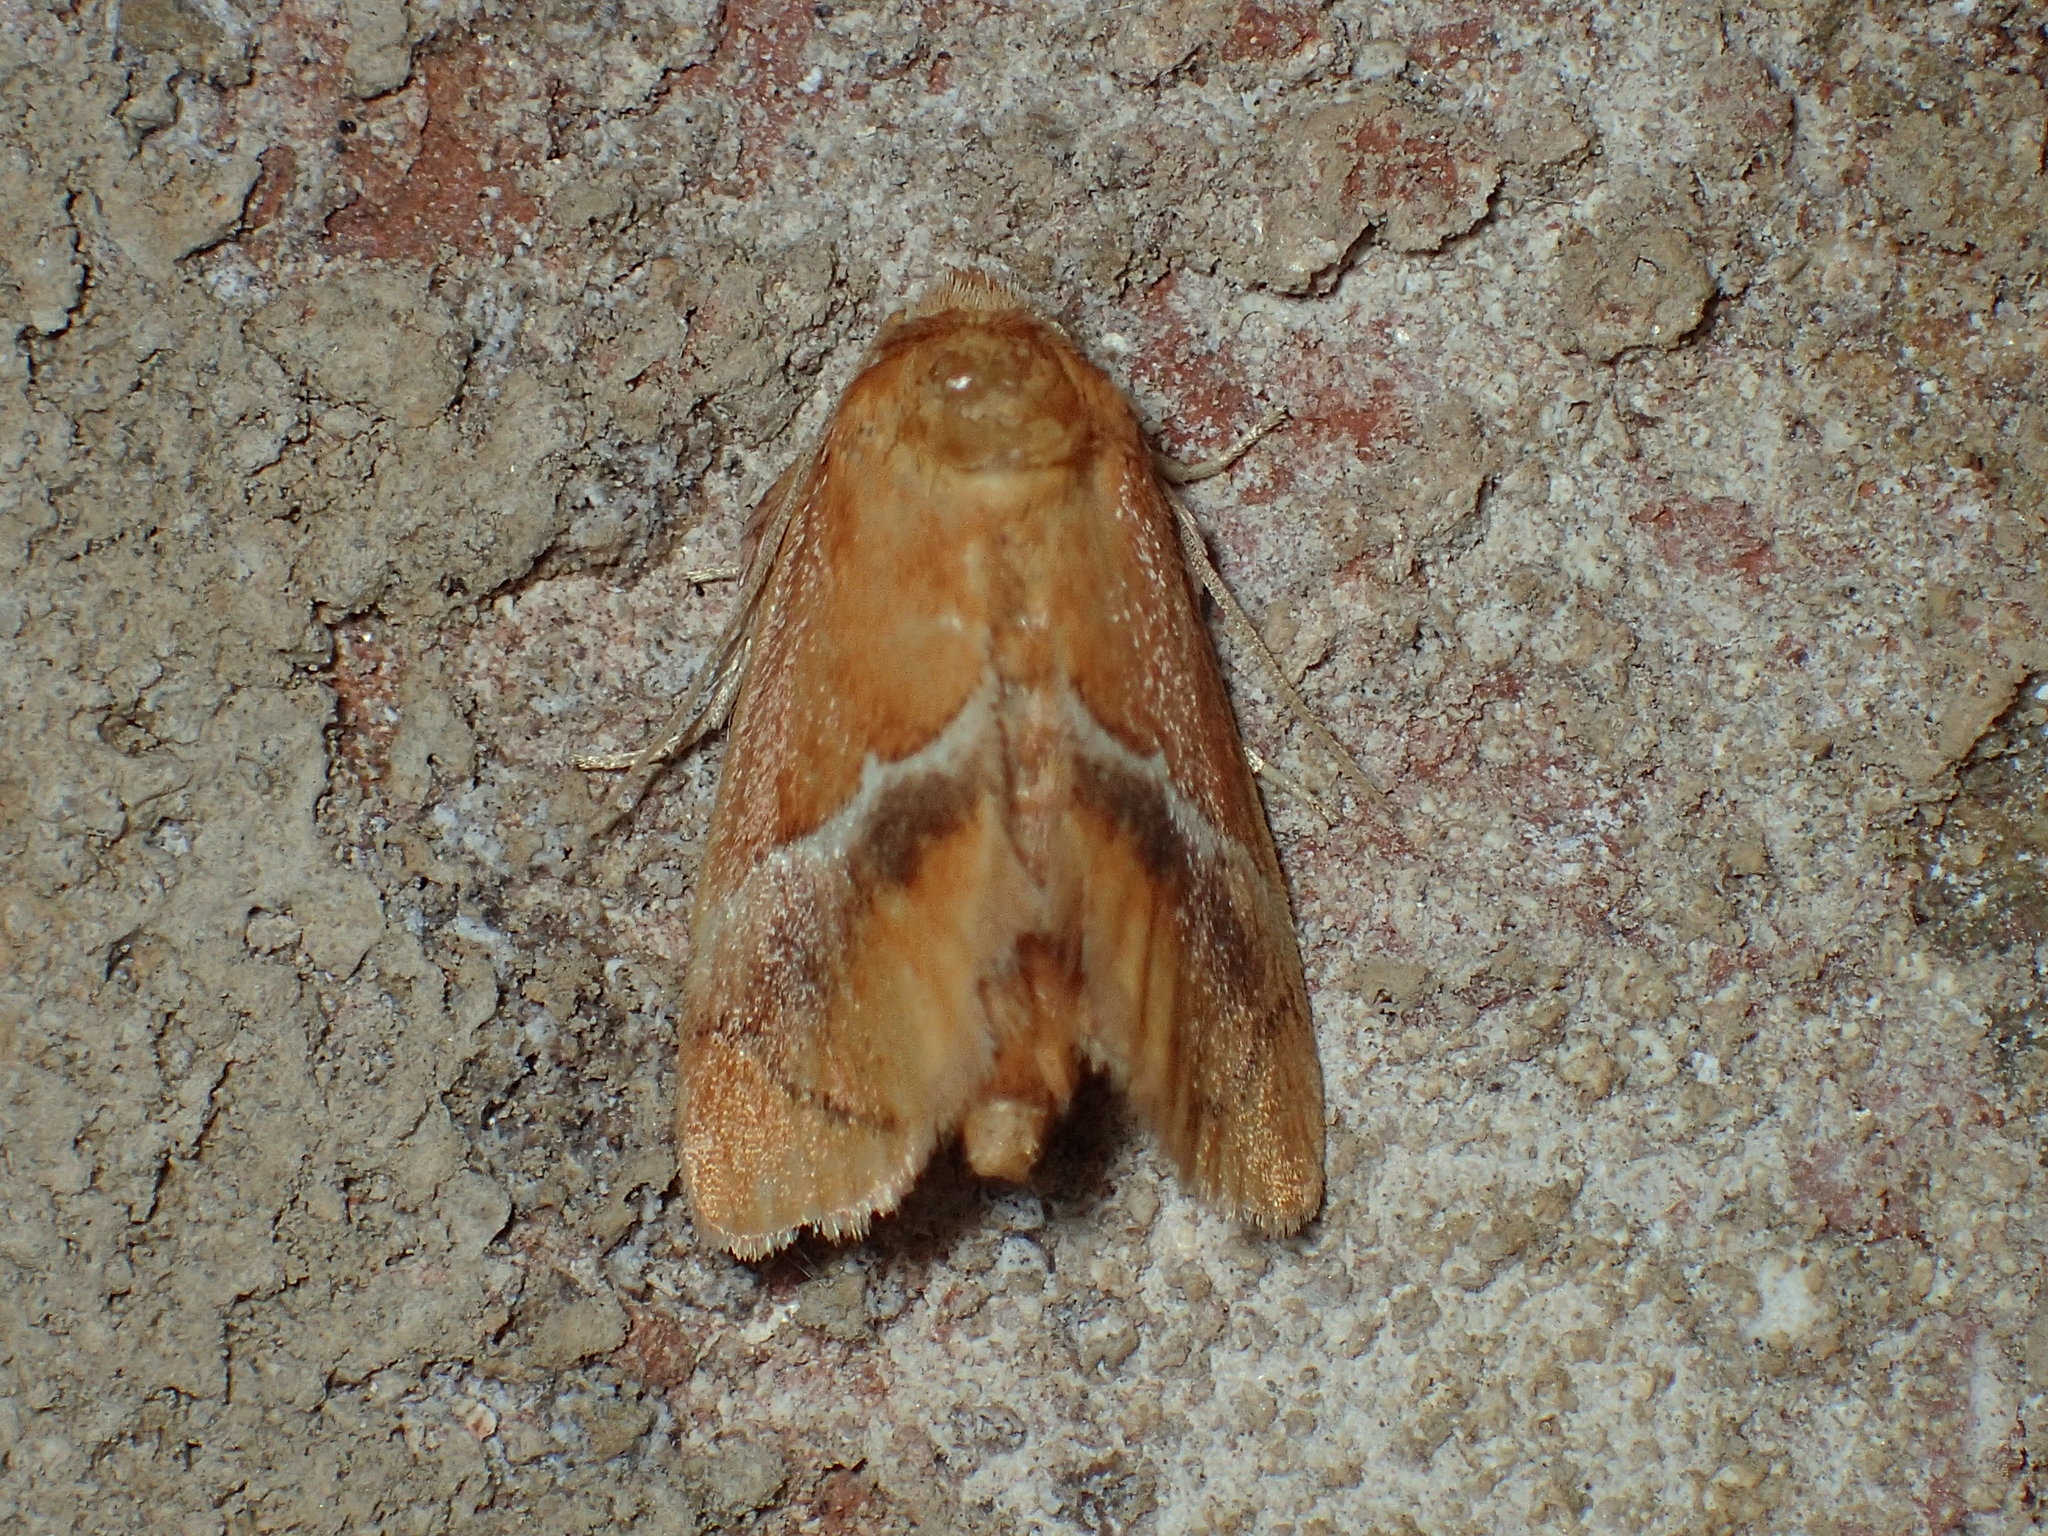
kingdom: Animalia
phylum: Arthropoda
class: Insecta
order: Lepidoptera
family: Limacodidae
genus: Lithacodes
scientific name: Lithacodes fasciola
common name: Yellow-shouldered slug moth
